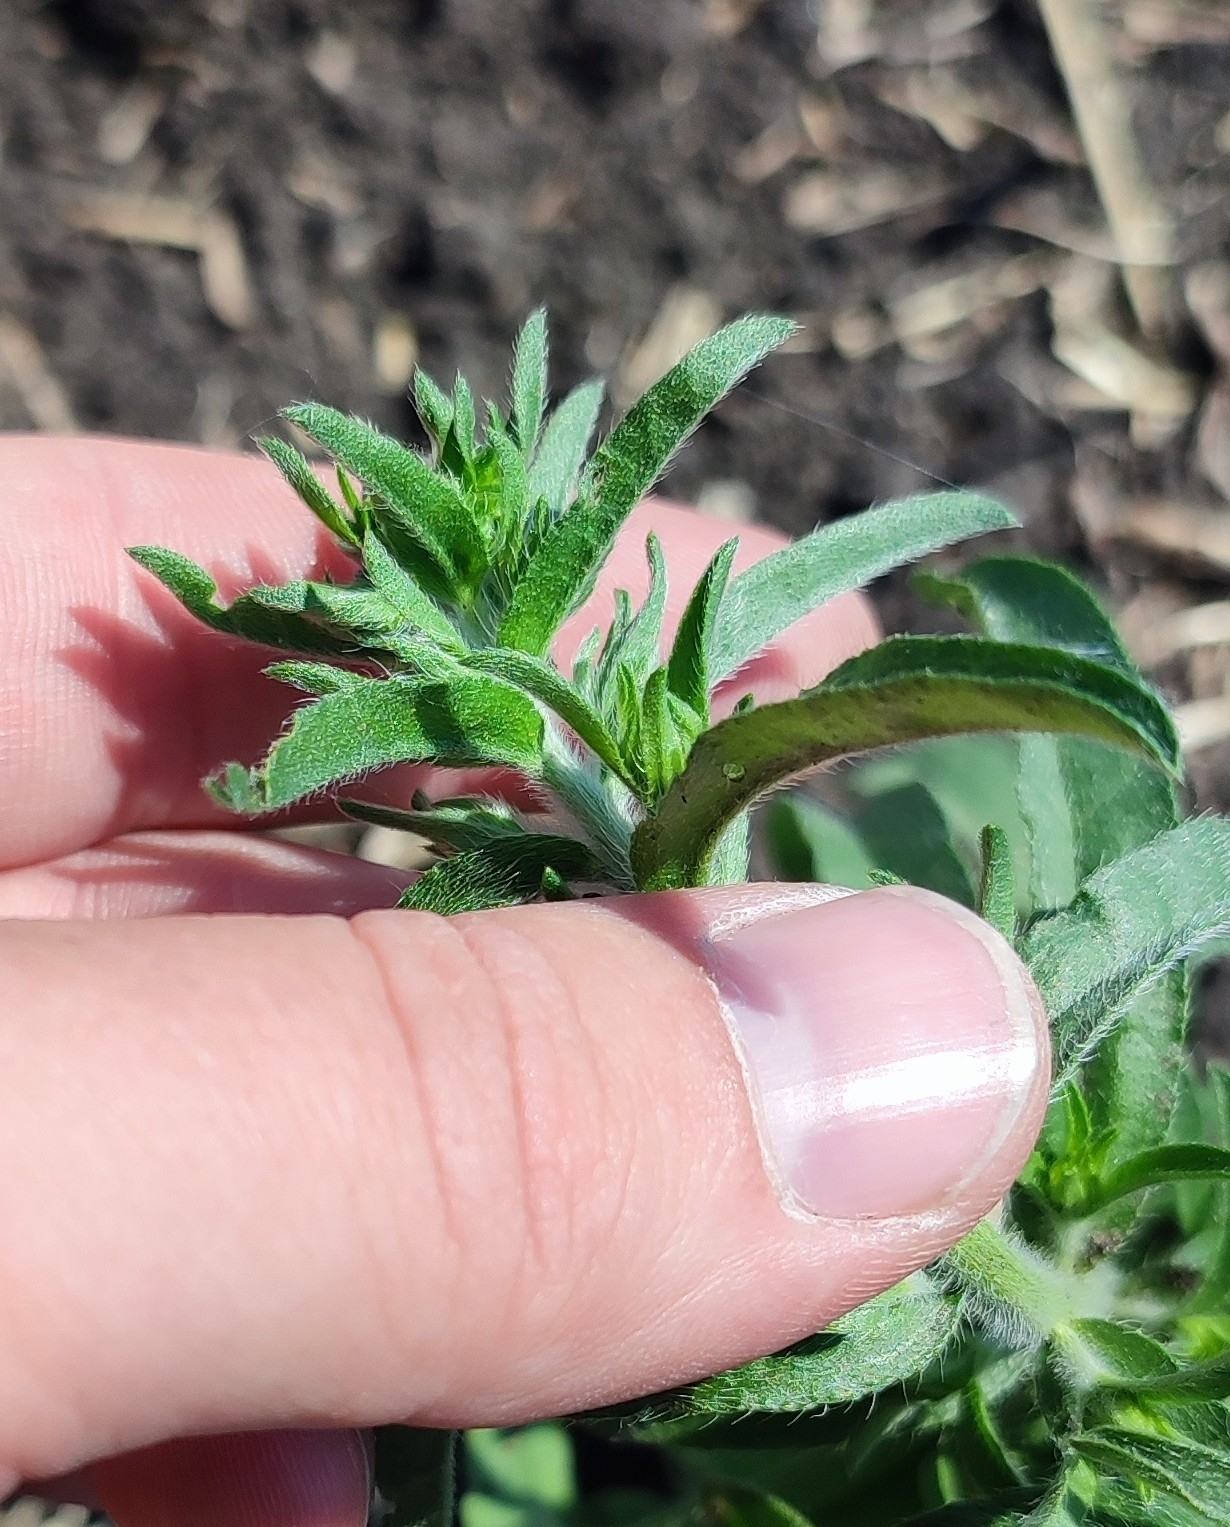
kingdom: Plantae
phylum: Tracheophyta
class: Magnoliopsida
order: Boraginales
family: Boraginaceae
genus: Lappula
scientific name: Lappula squarrosa
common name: European stickseed
